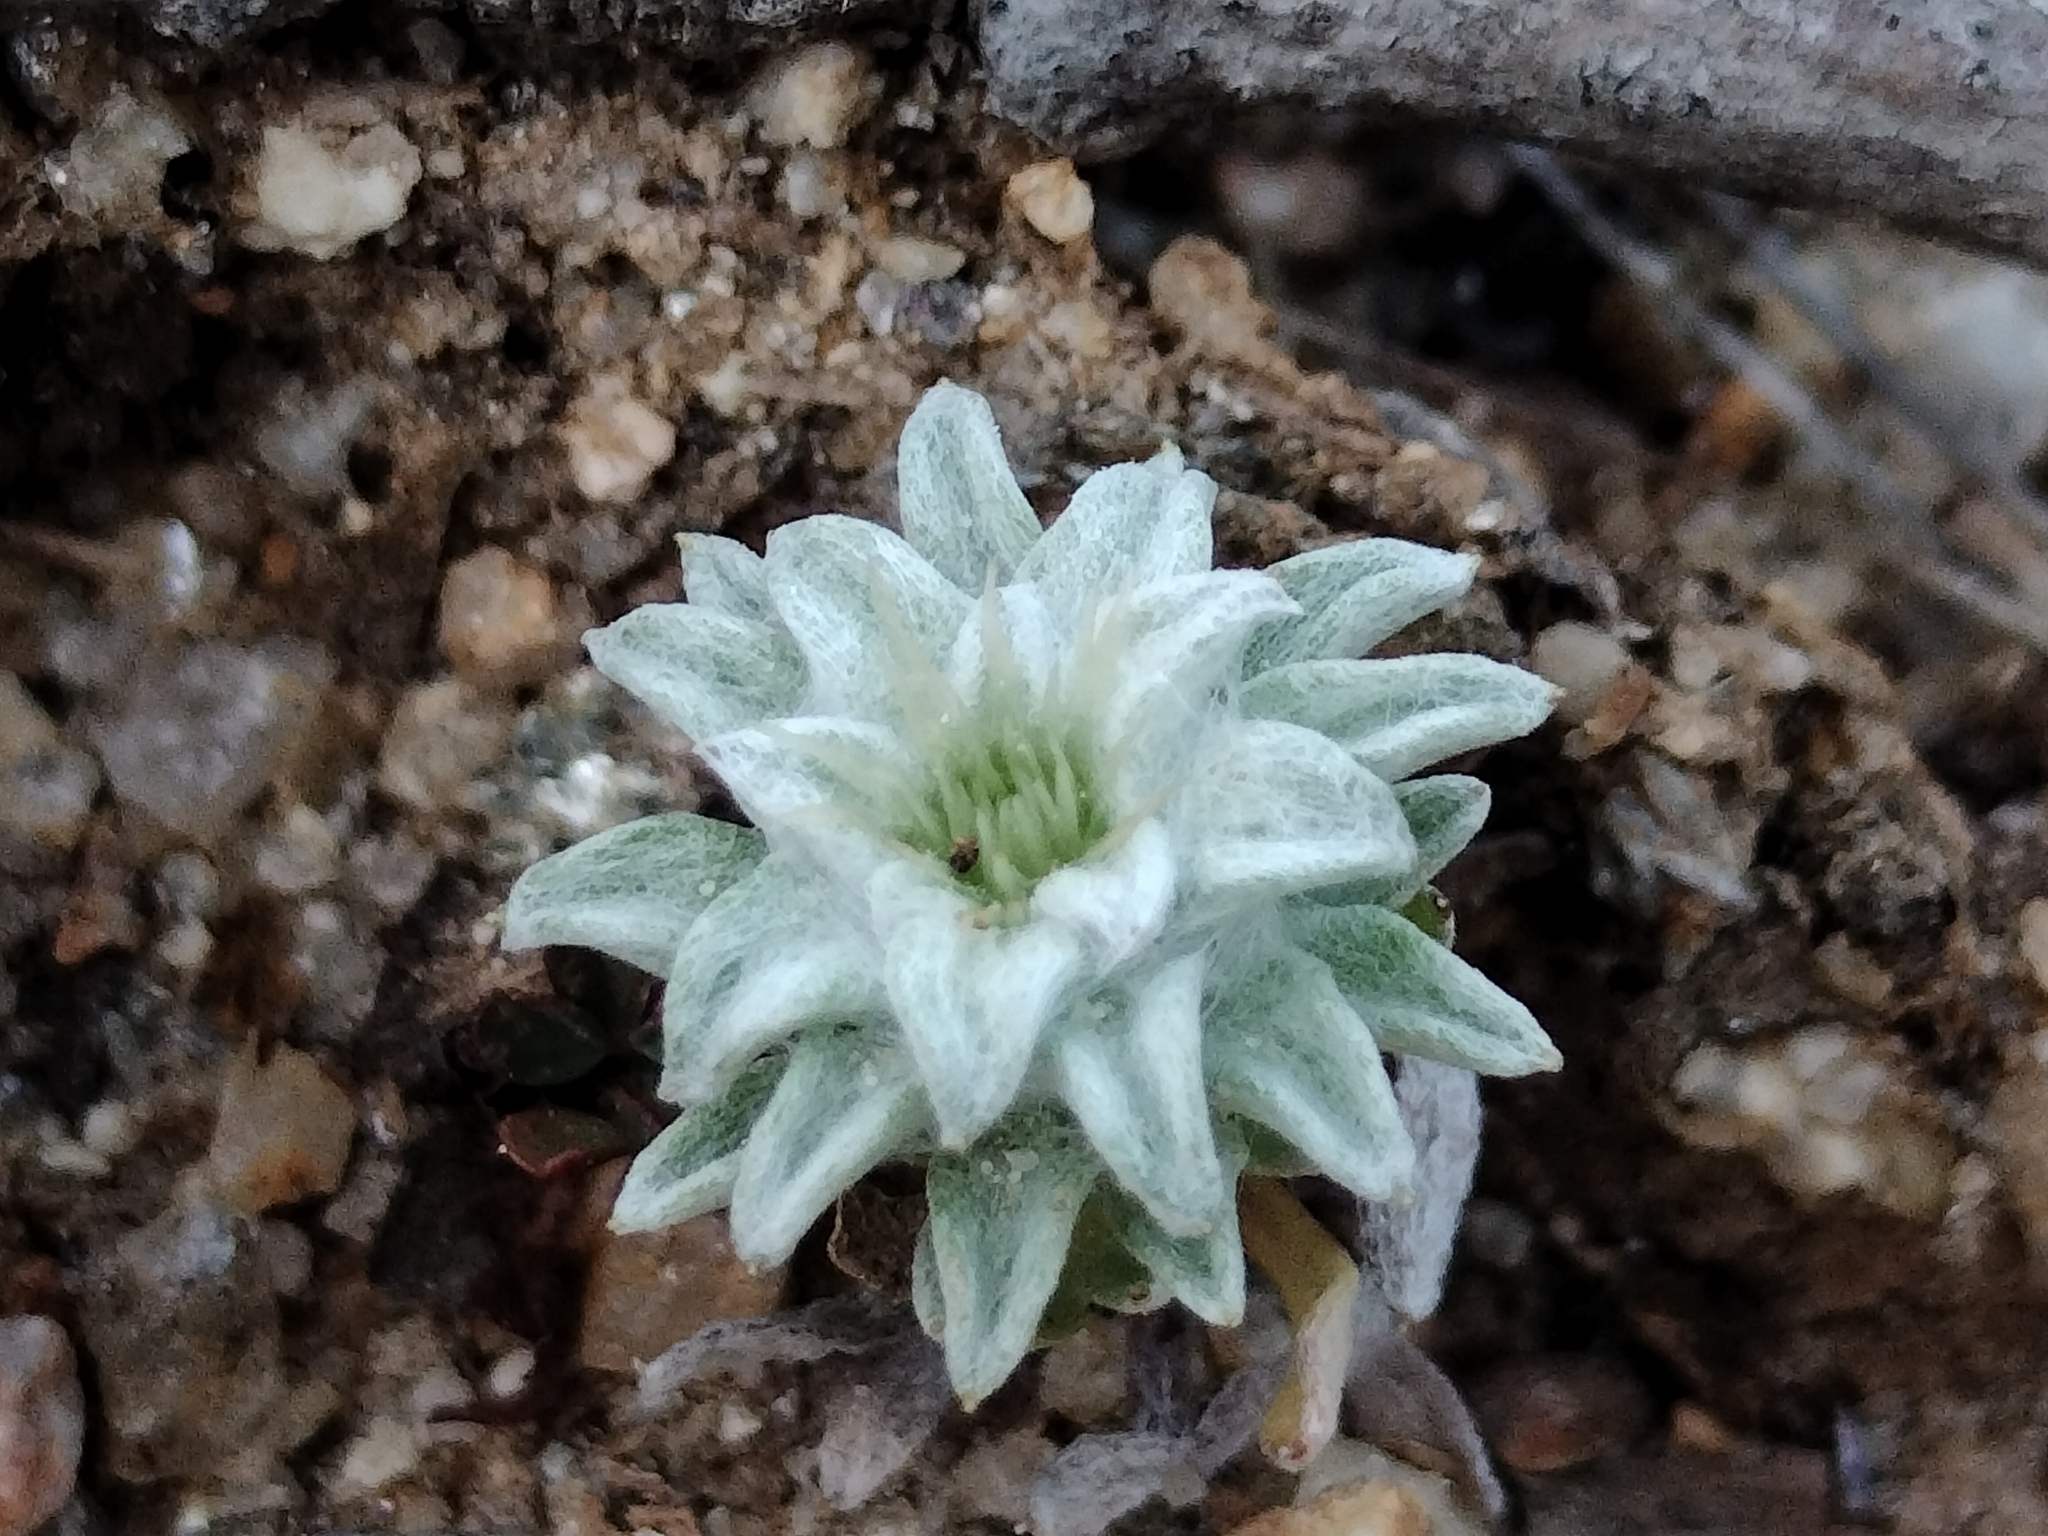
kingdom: Plantae
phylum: Tracheophyta
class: Magnoliopsida
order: Asterales
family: Asteraceae
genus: Filago
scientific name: Filago carpetana
